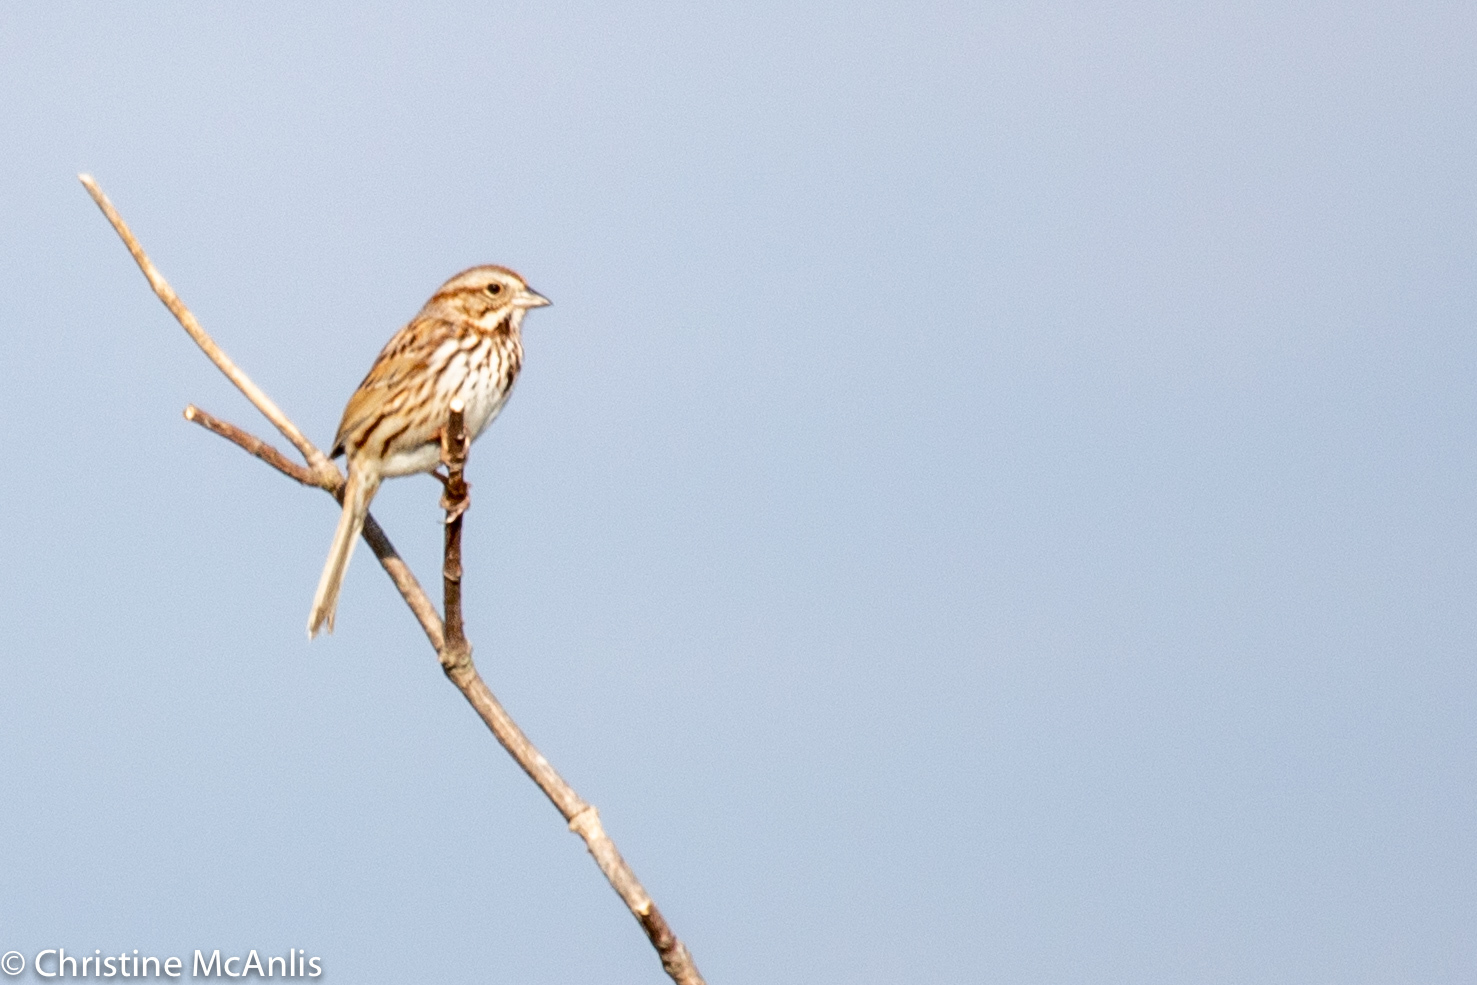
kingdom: Animalia
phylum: Chordata
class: Aves
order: Passeriformes
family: Passerellidae
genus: Melospiza
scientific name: Melospiza melodia
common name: Song sparrow
